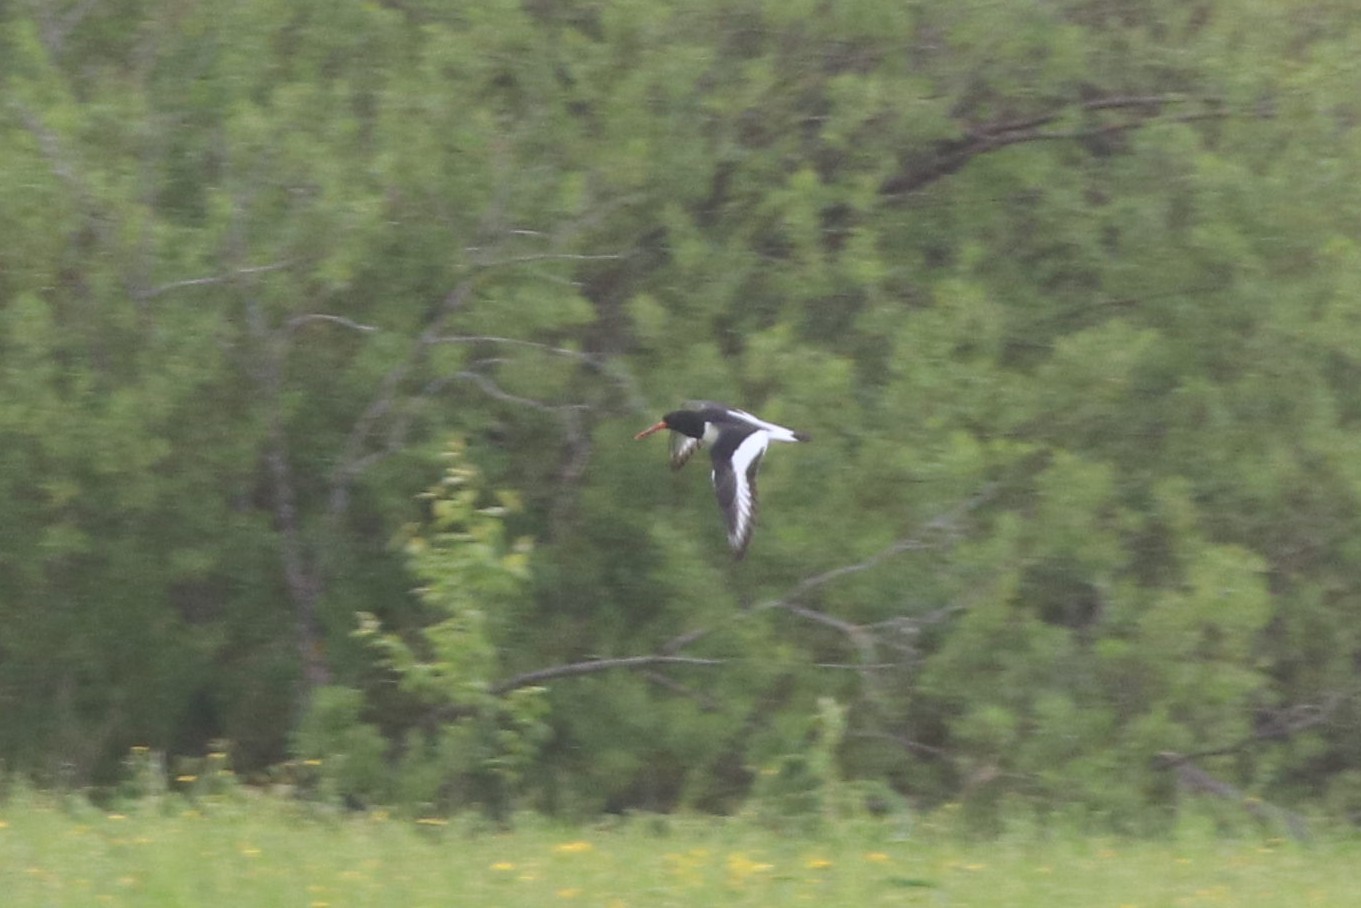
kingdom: Animalia
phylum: Chordata
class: Aves
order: Charadriiformes
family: Haematopodidae
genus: Haematopus
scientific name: Haematopus ostralegus
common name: Eurasian oystercatcher
